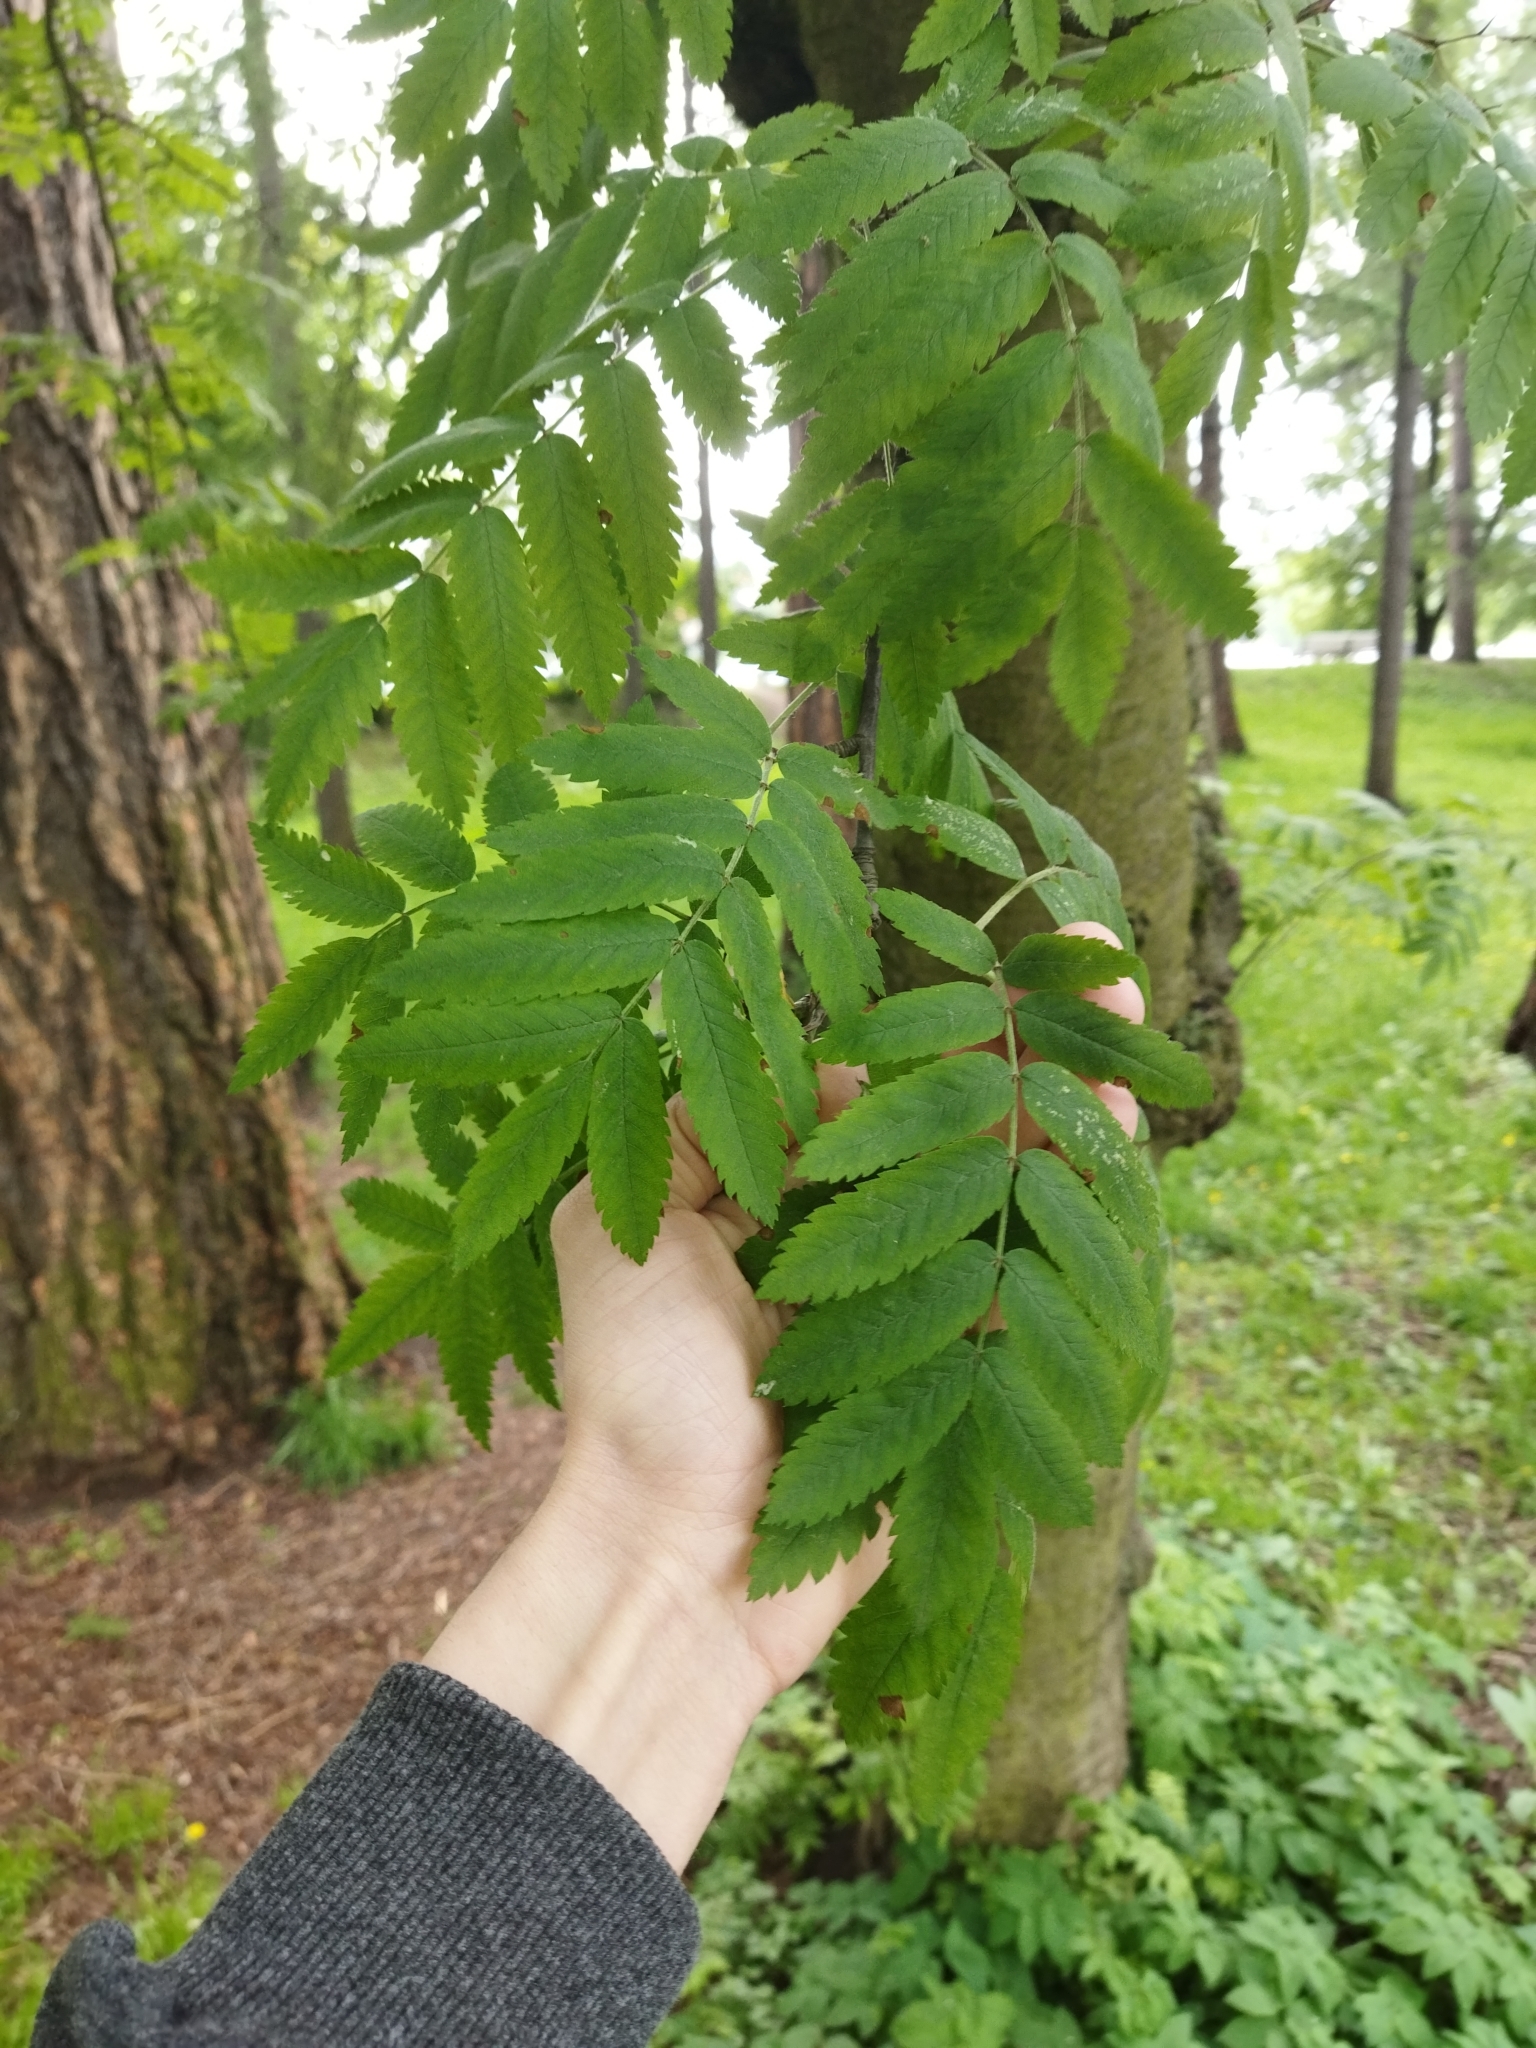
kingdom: Plantae
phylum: Tracheophyta
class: Magnoliopsida
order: Rosales
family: Rosaceae
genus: Sorbus
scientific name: Sorbus aucuparia
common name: Rowan
